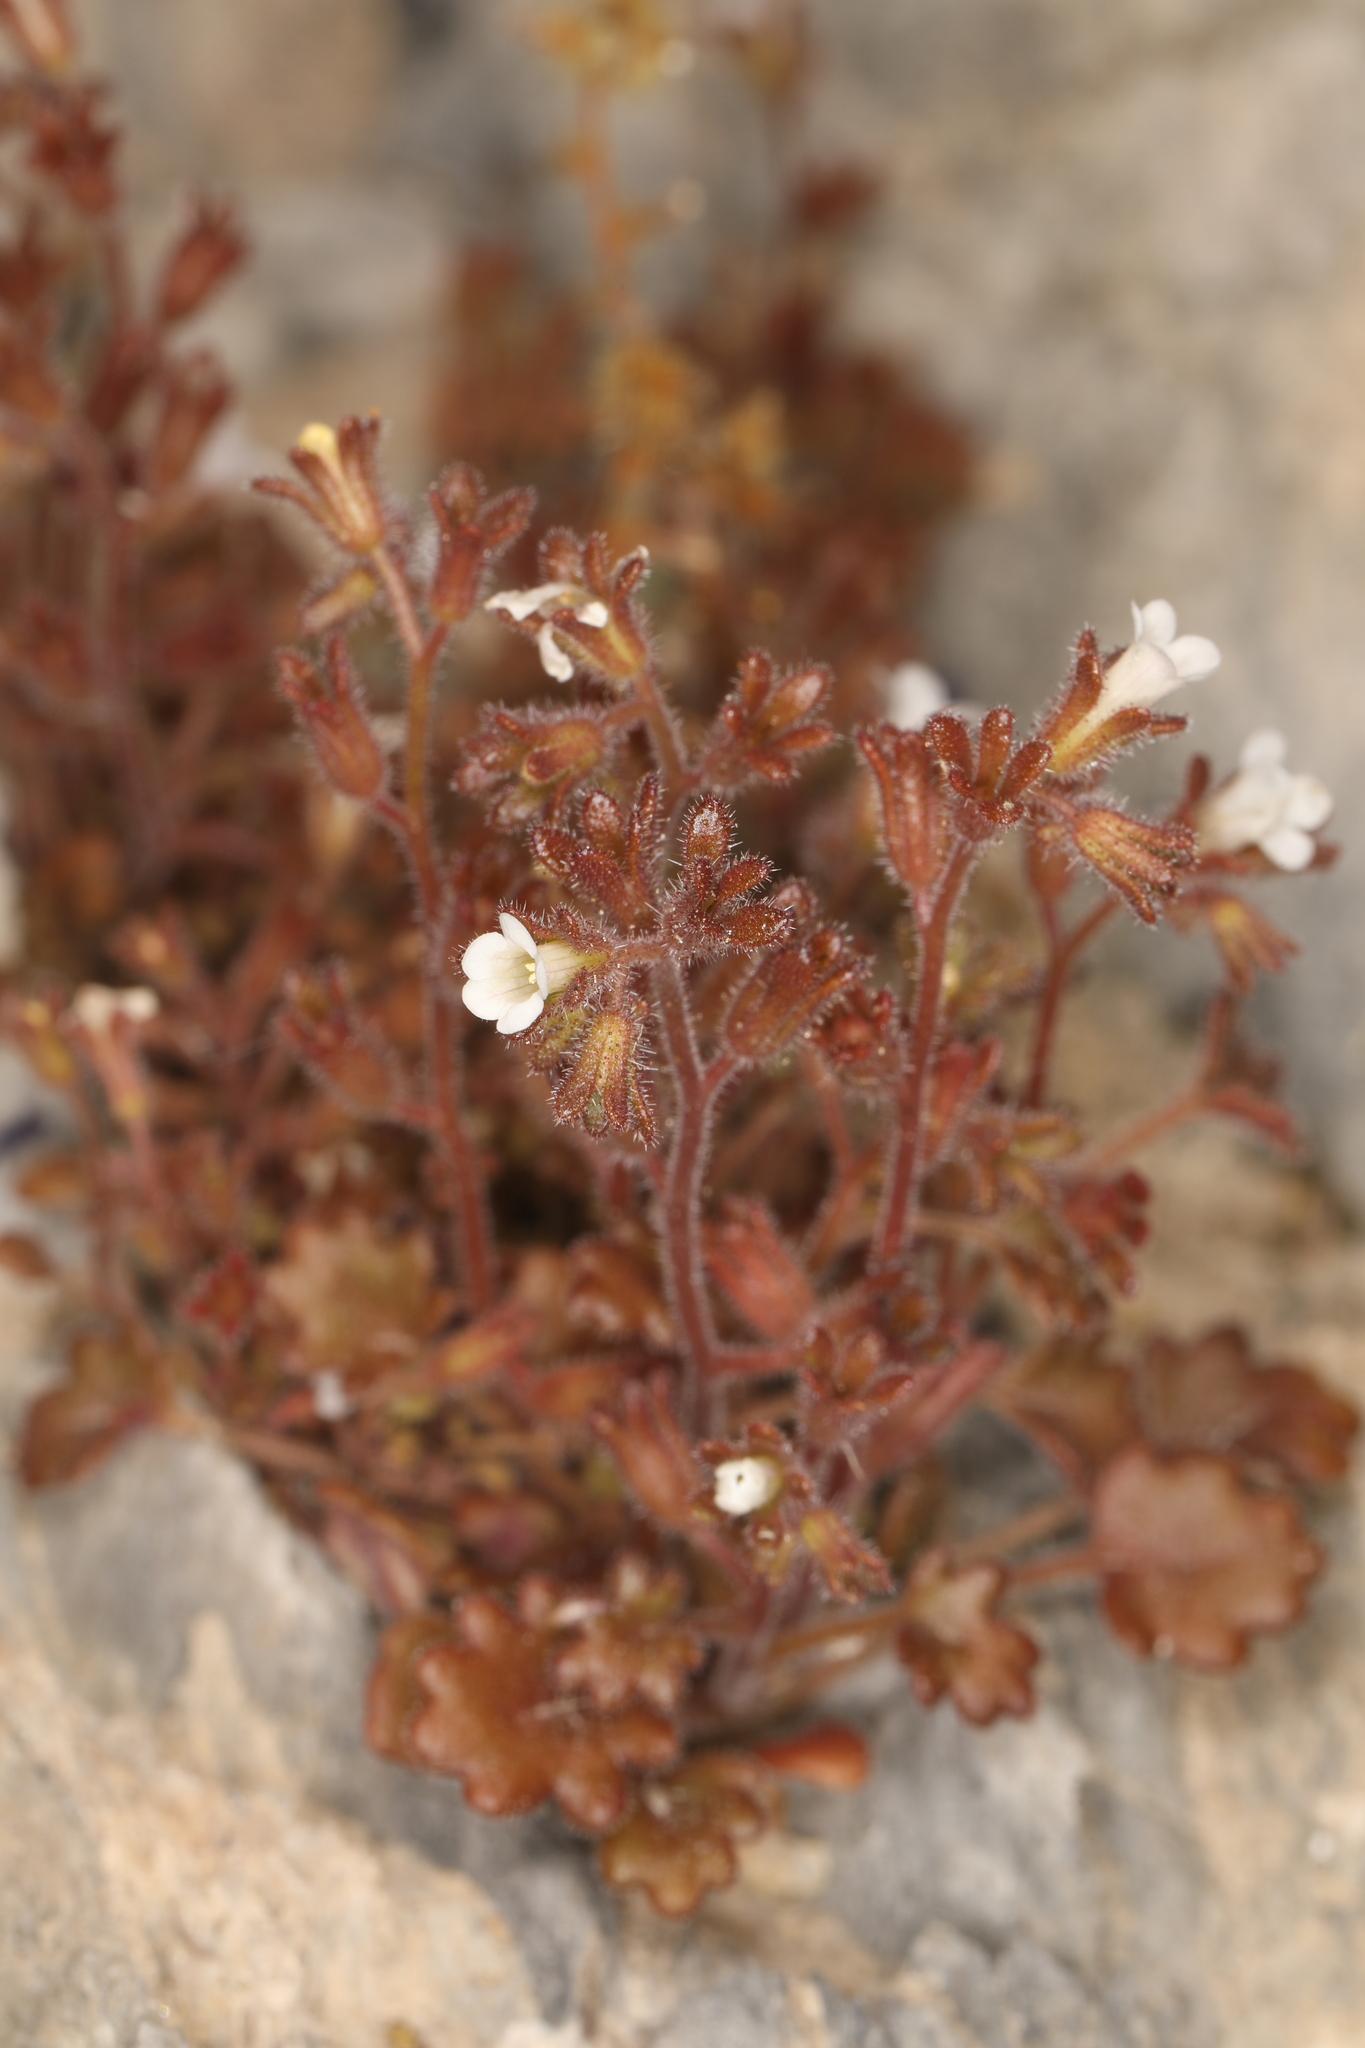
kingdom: Plantae
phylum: Tracheophyta
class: Magnoliopsida
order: Boraginales
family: Hydrophyllaceae
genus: Phacelia
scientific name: Phacelia rotundifolia
